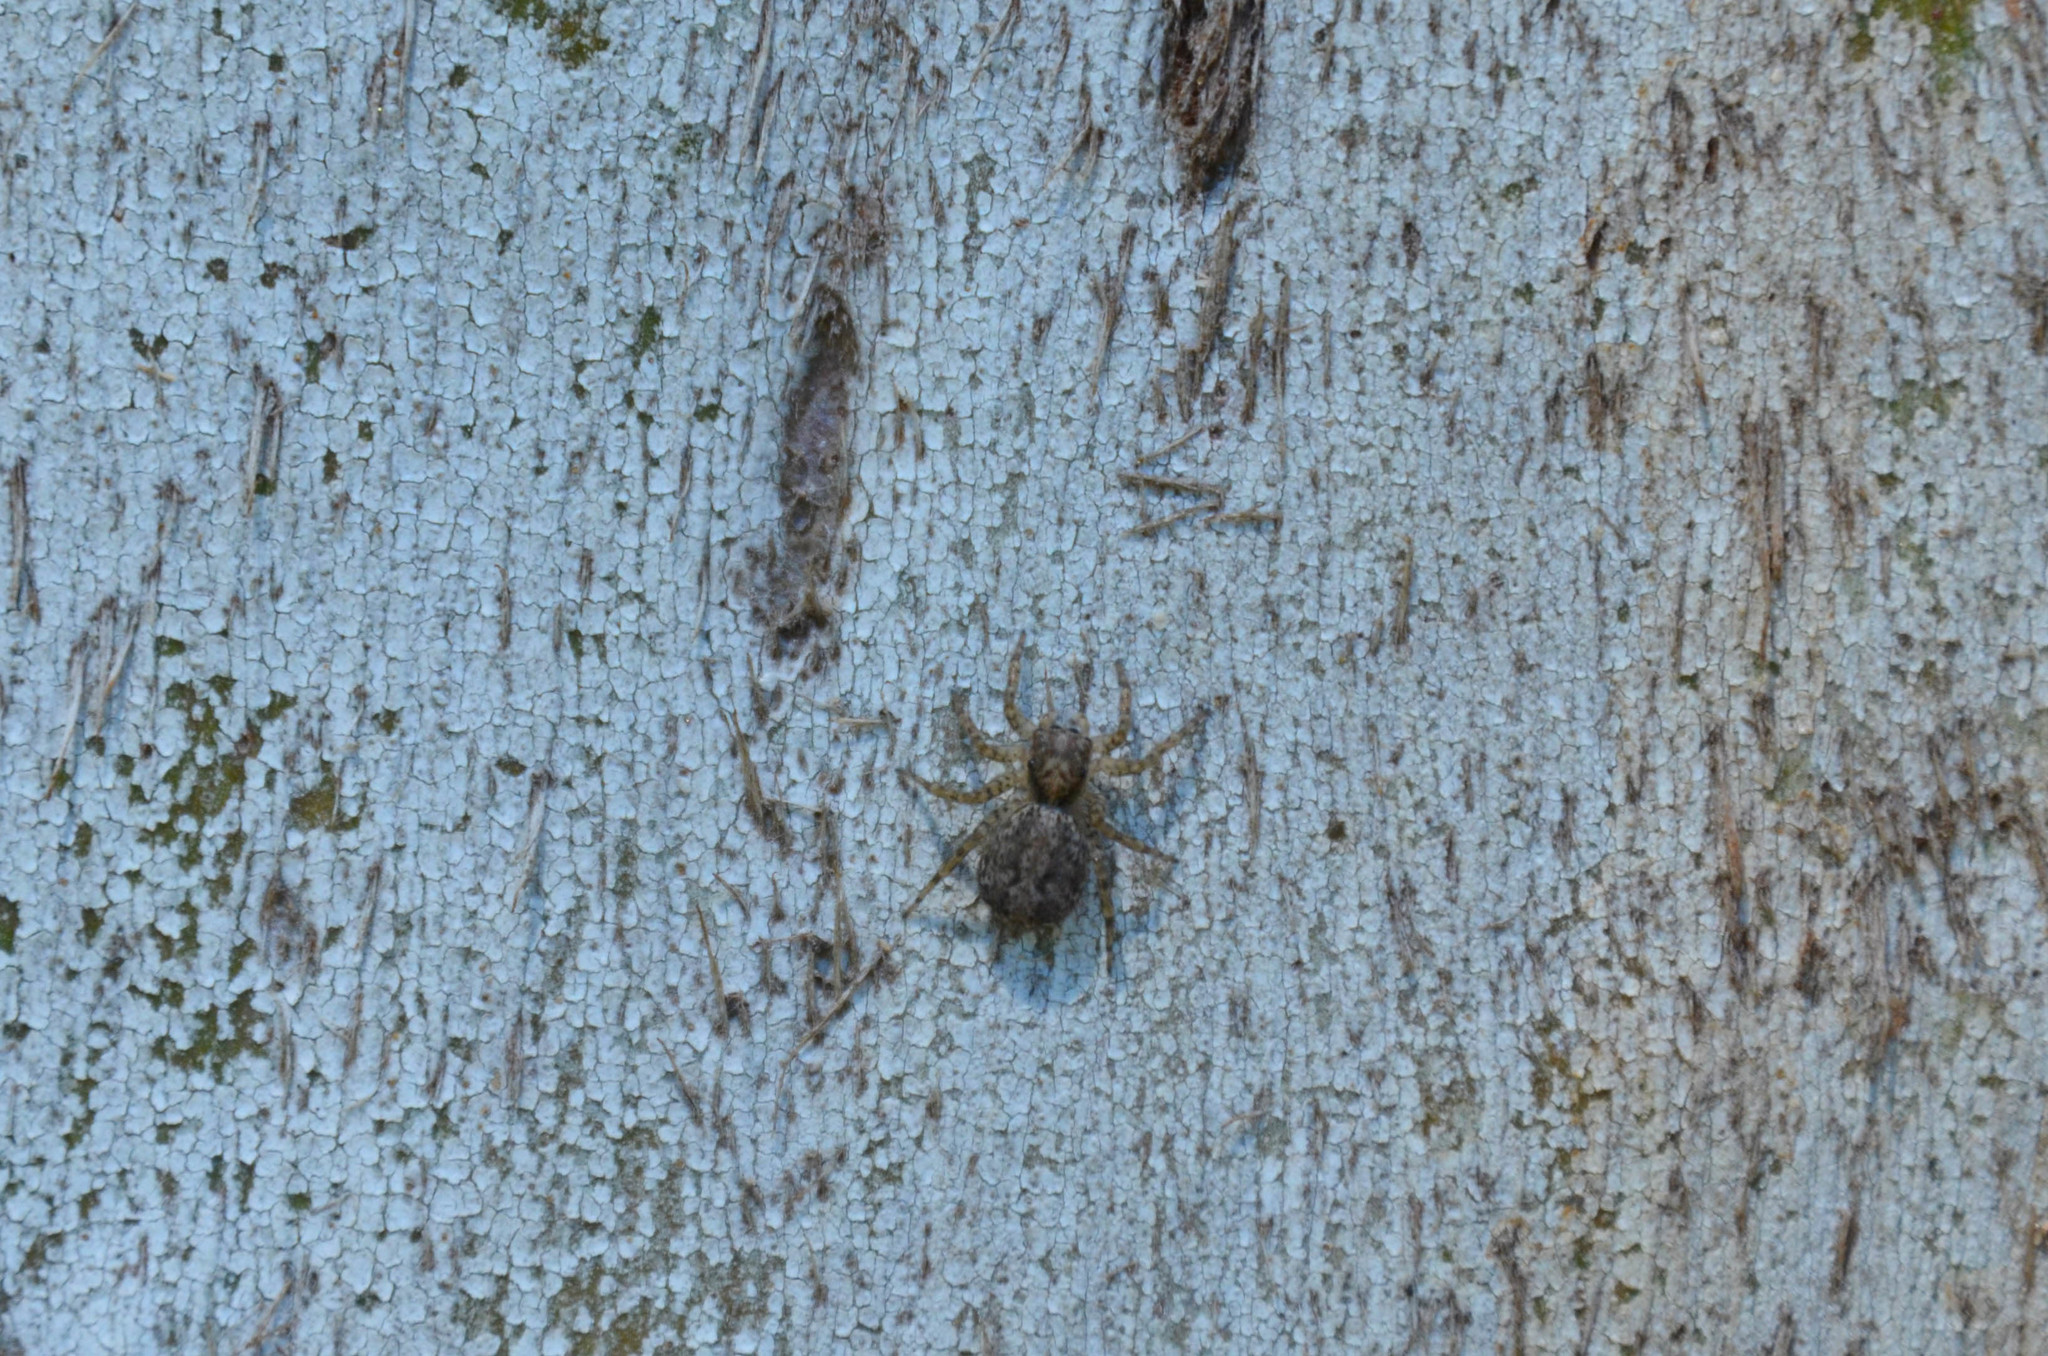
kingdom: Animalia
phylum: Arthropoda
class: Arachnida
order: Araneae
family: Salticidae
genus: Saitis
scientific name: Saitis variegatus
